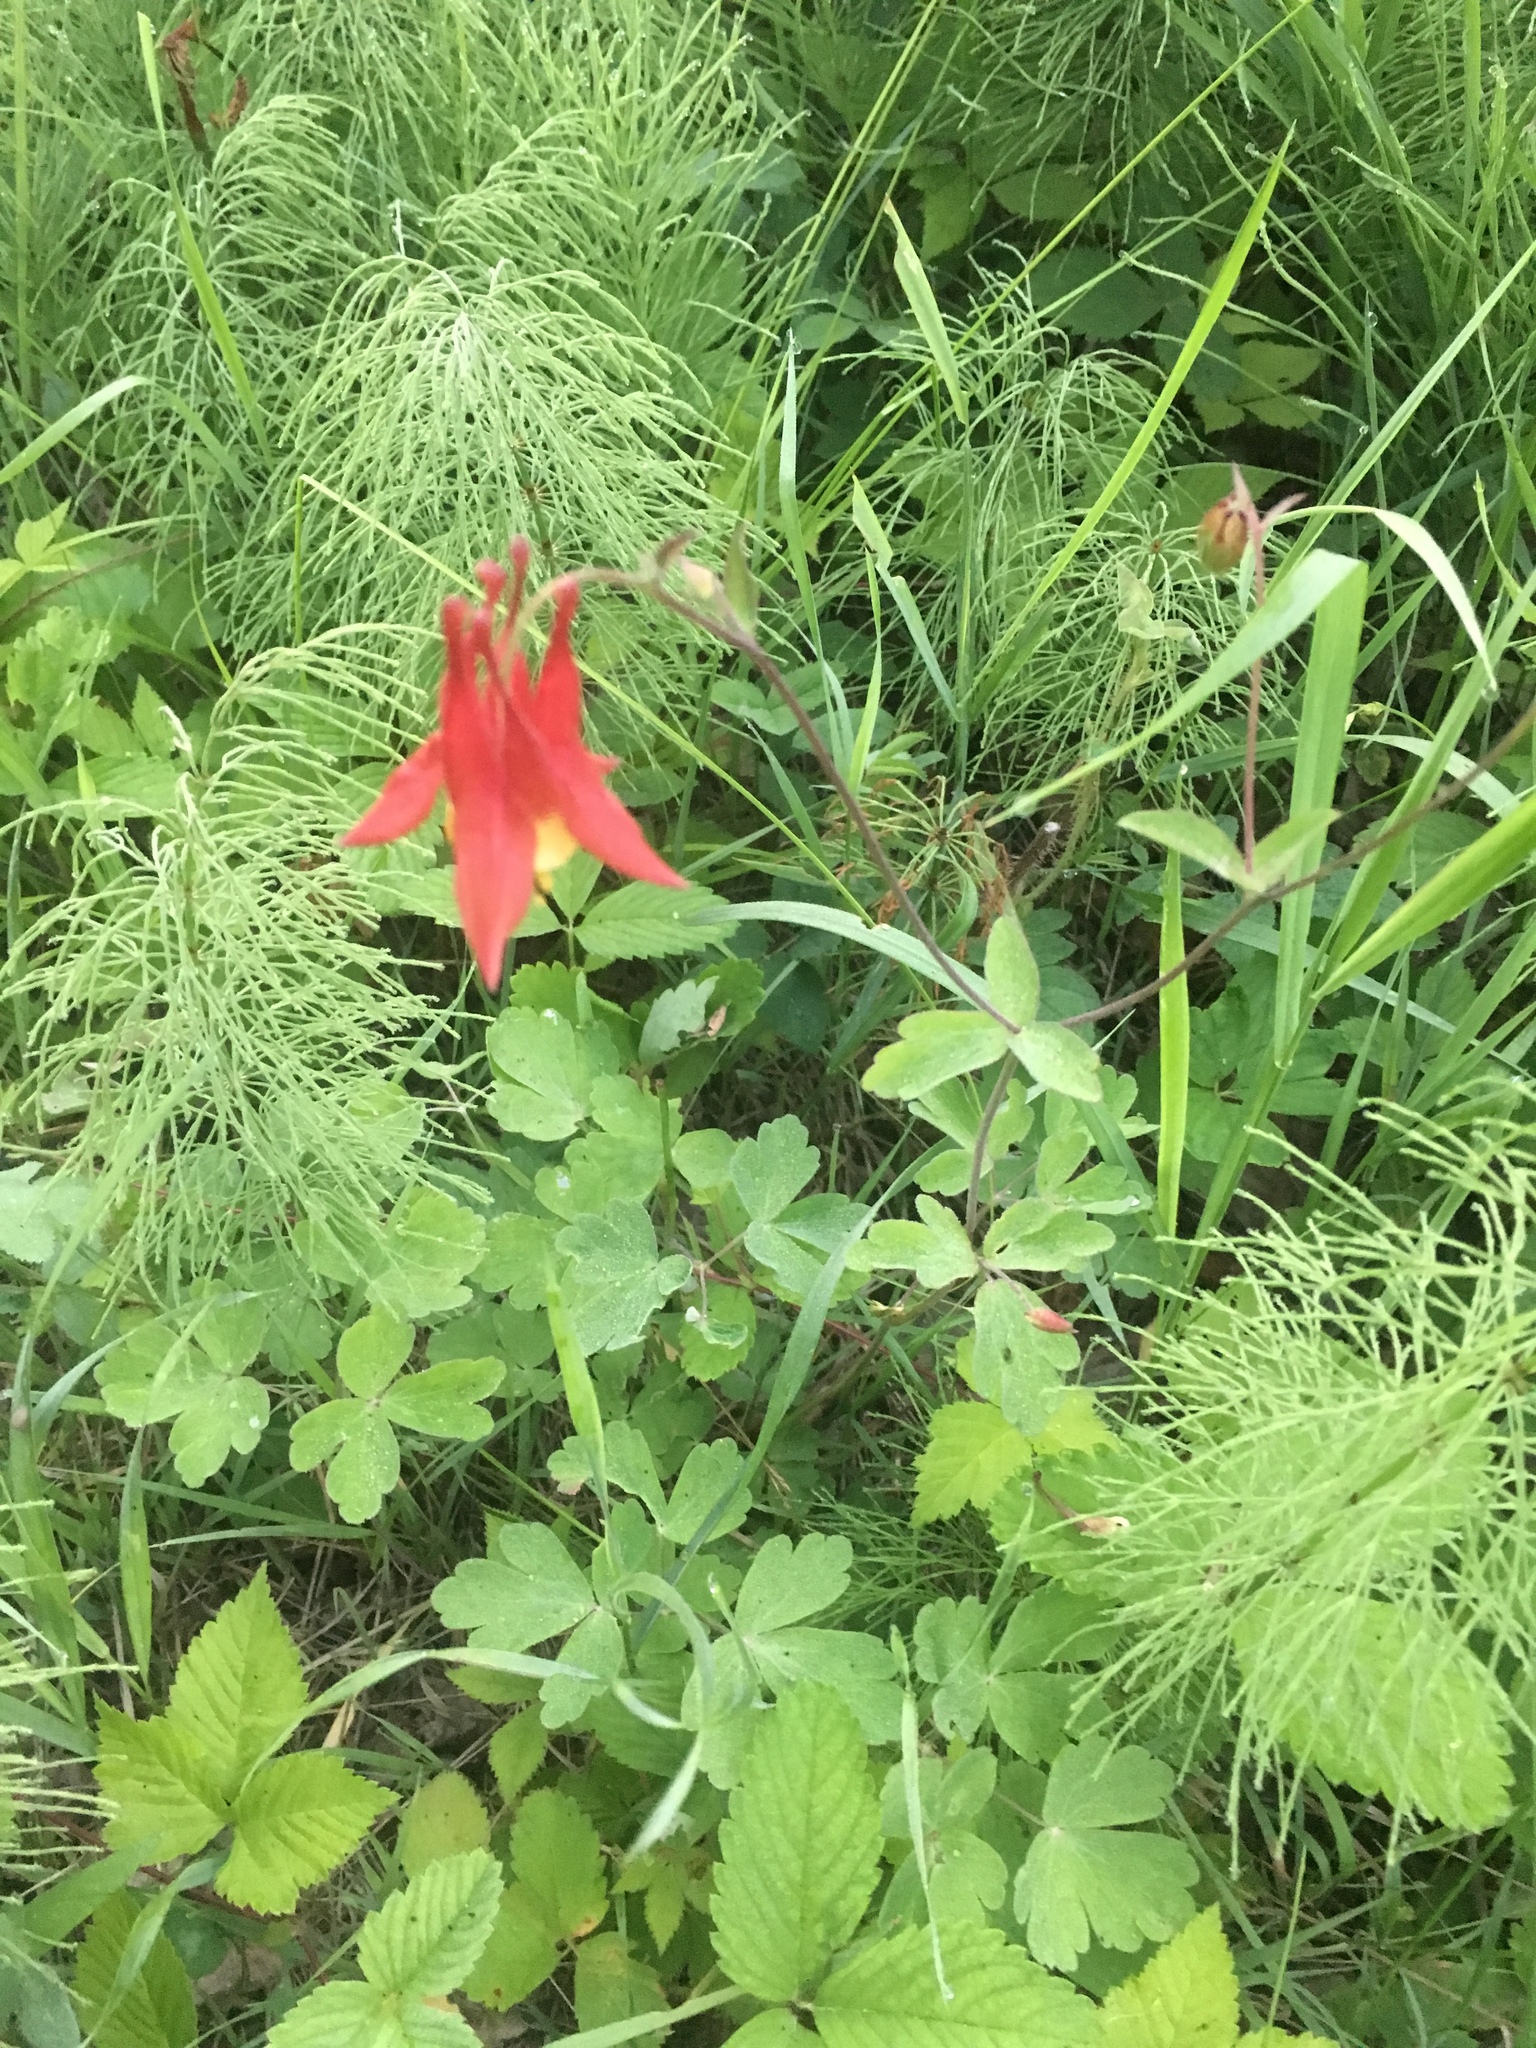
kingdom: Plantae
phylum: Tracheophyta
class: Magnoliopsida
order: Ranunculales
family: Ranunculaceae
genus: Aquilegia
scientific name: Aquilegia canadensis
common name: American columbine
